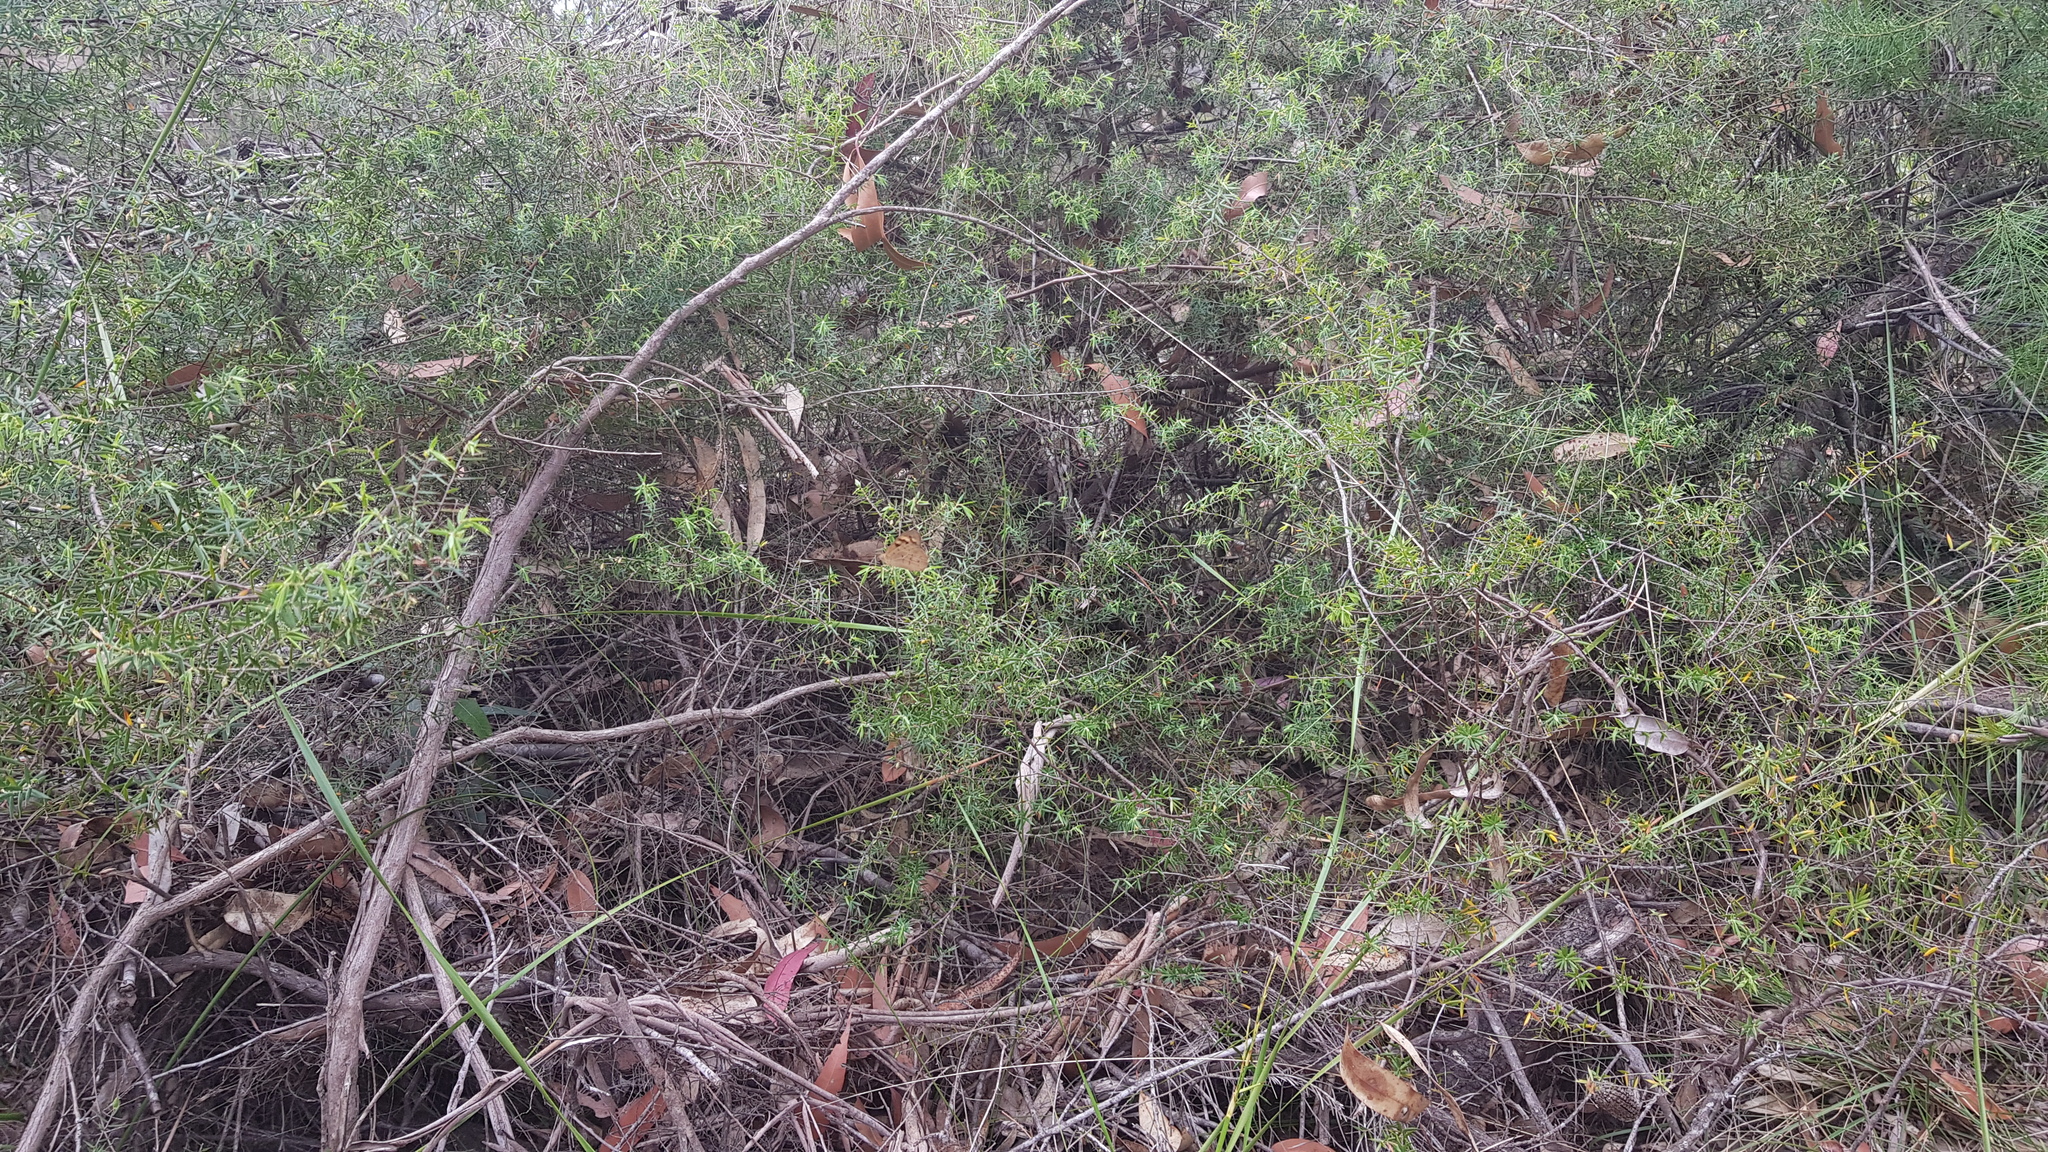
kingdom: Animalia
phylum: Arthropoda
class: Insecta
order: Lepidoptera
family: Nymphalidae
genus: Heteronympha
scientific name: Heteronympha merope
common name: Common brown
